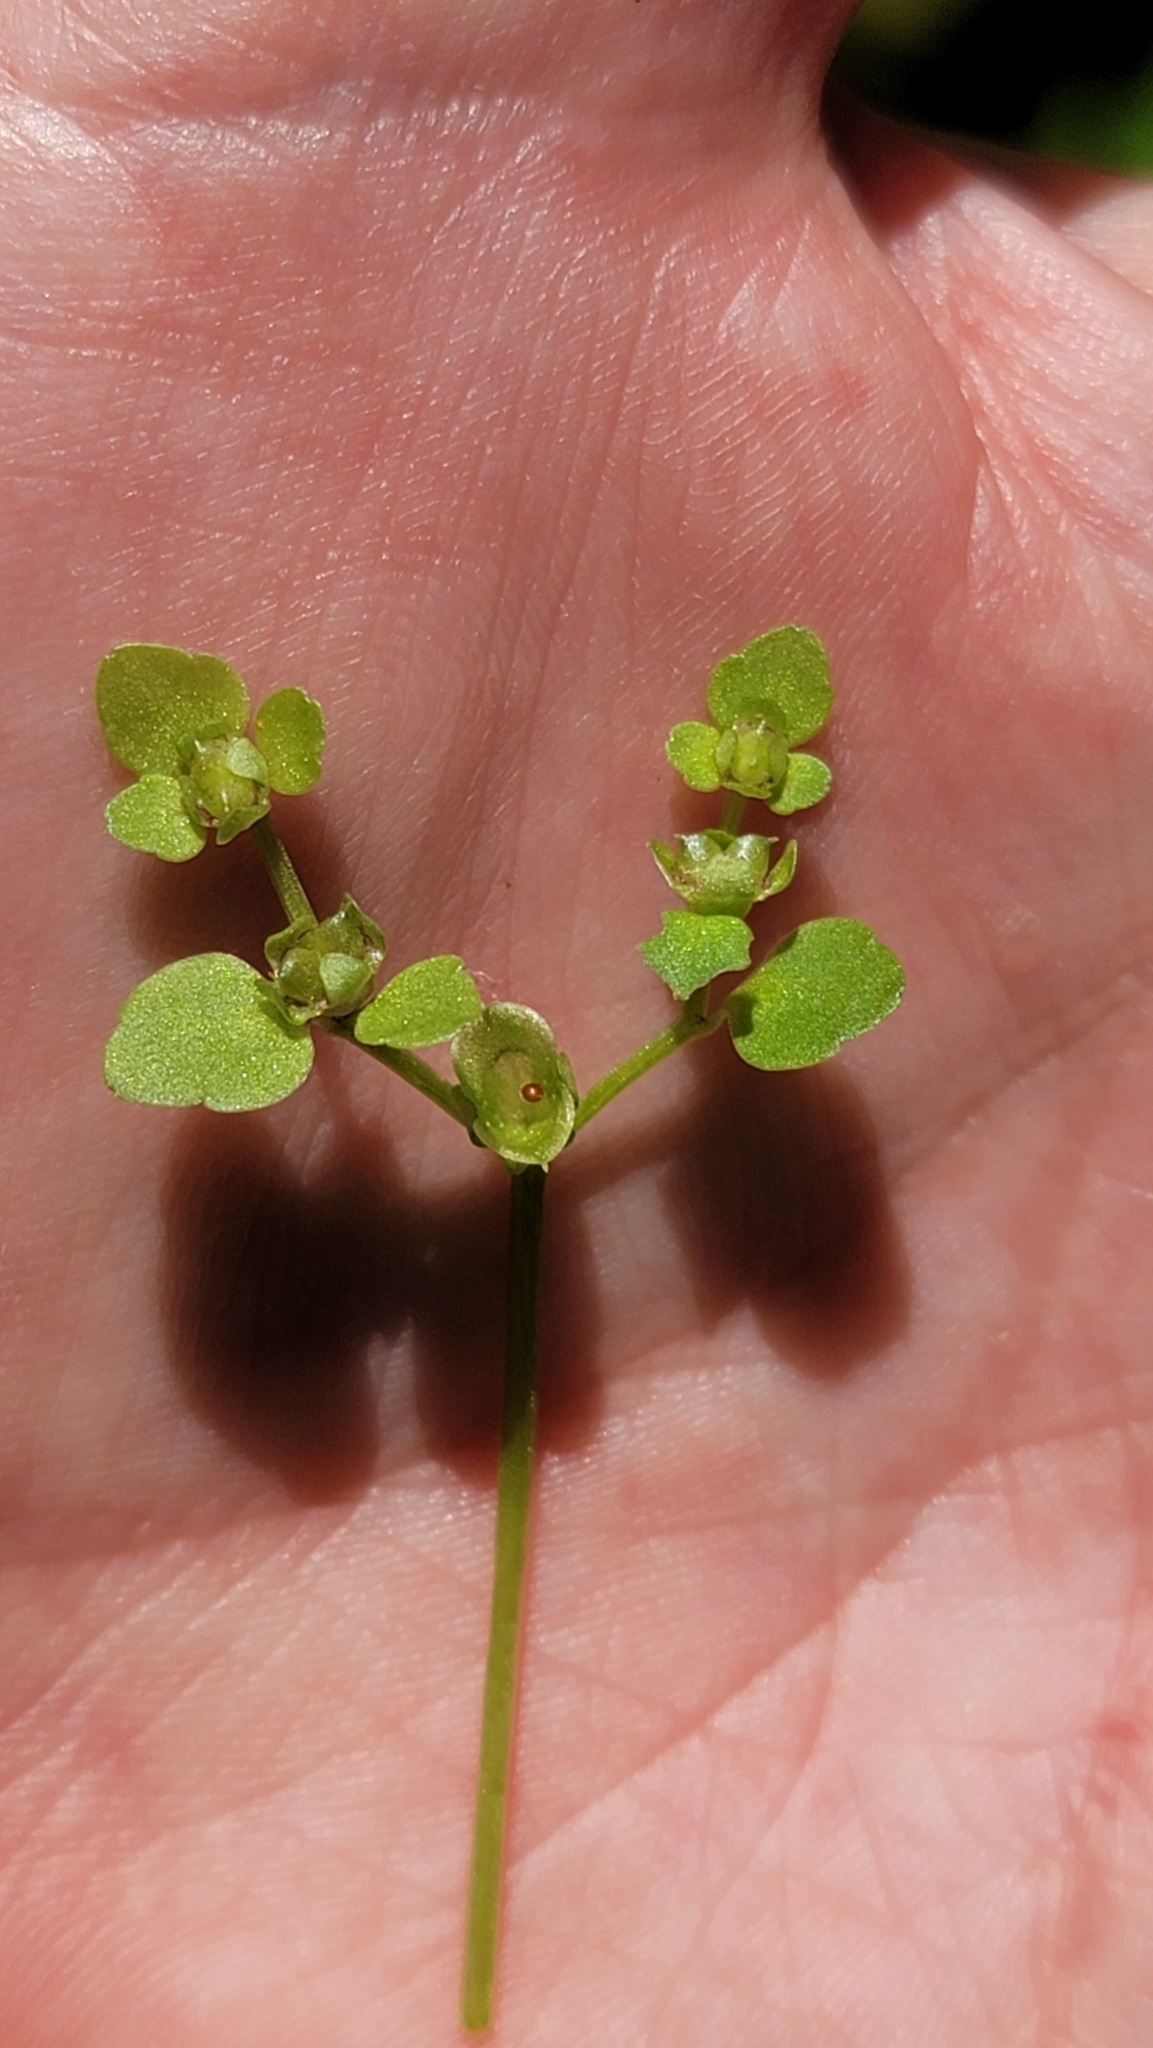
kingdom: Plantae
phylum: Tracheophyta
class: Magnoliopsida
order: Saxifragales
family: Saxifragaceae
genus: Chrysosplenium
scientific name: Chrysosplenium americanum
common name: American golden-saxifrage
